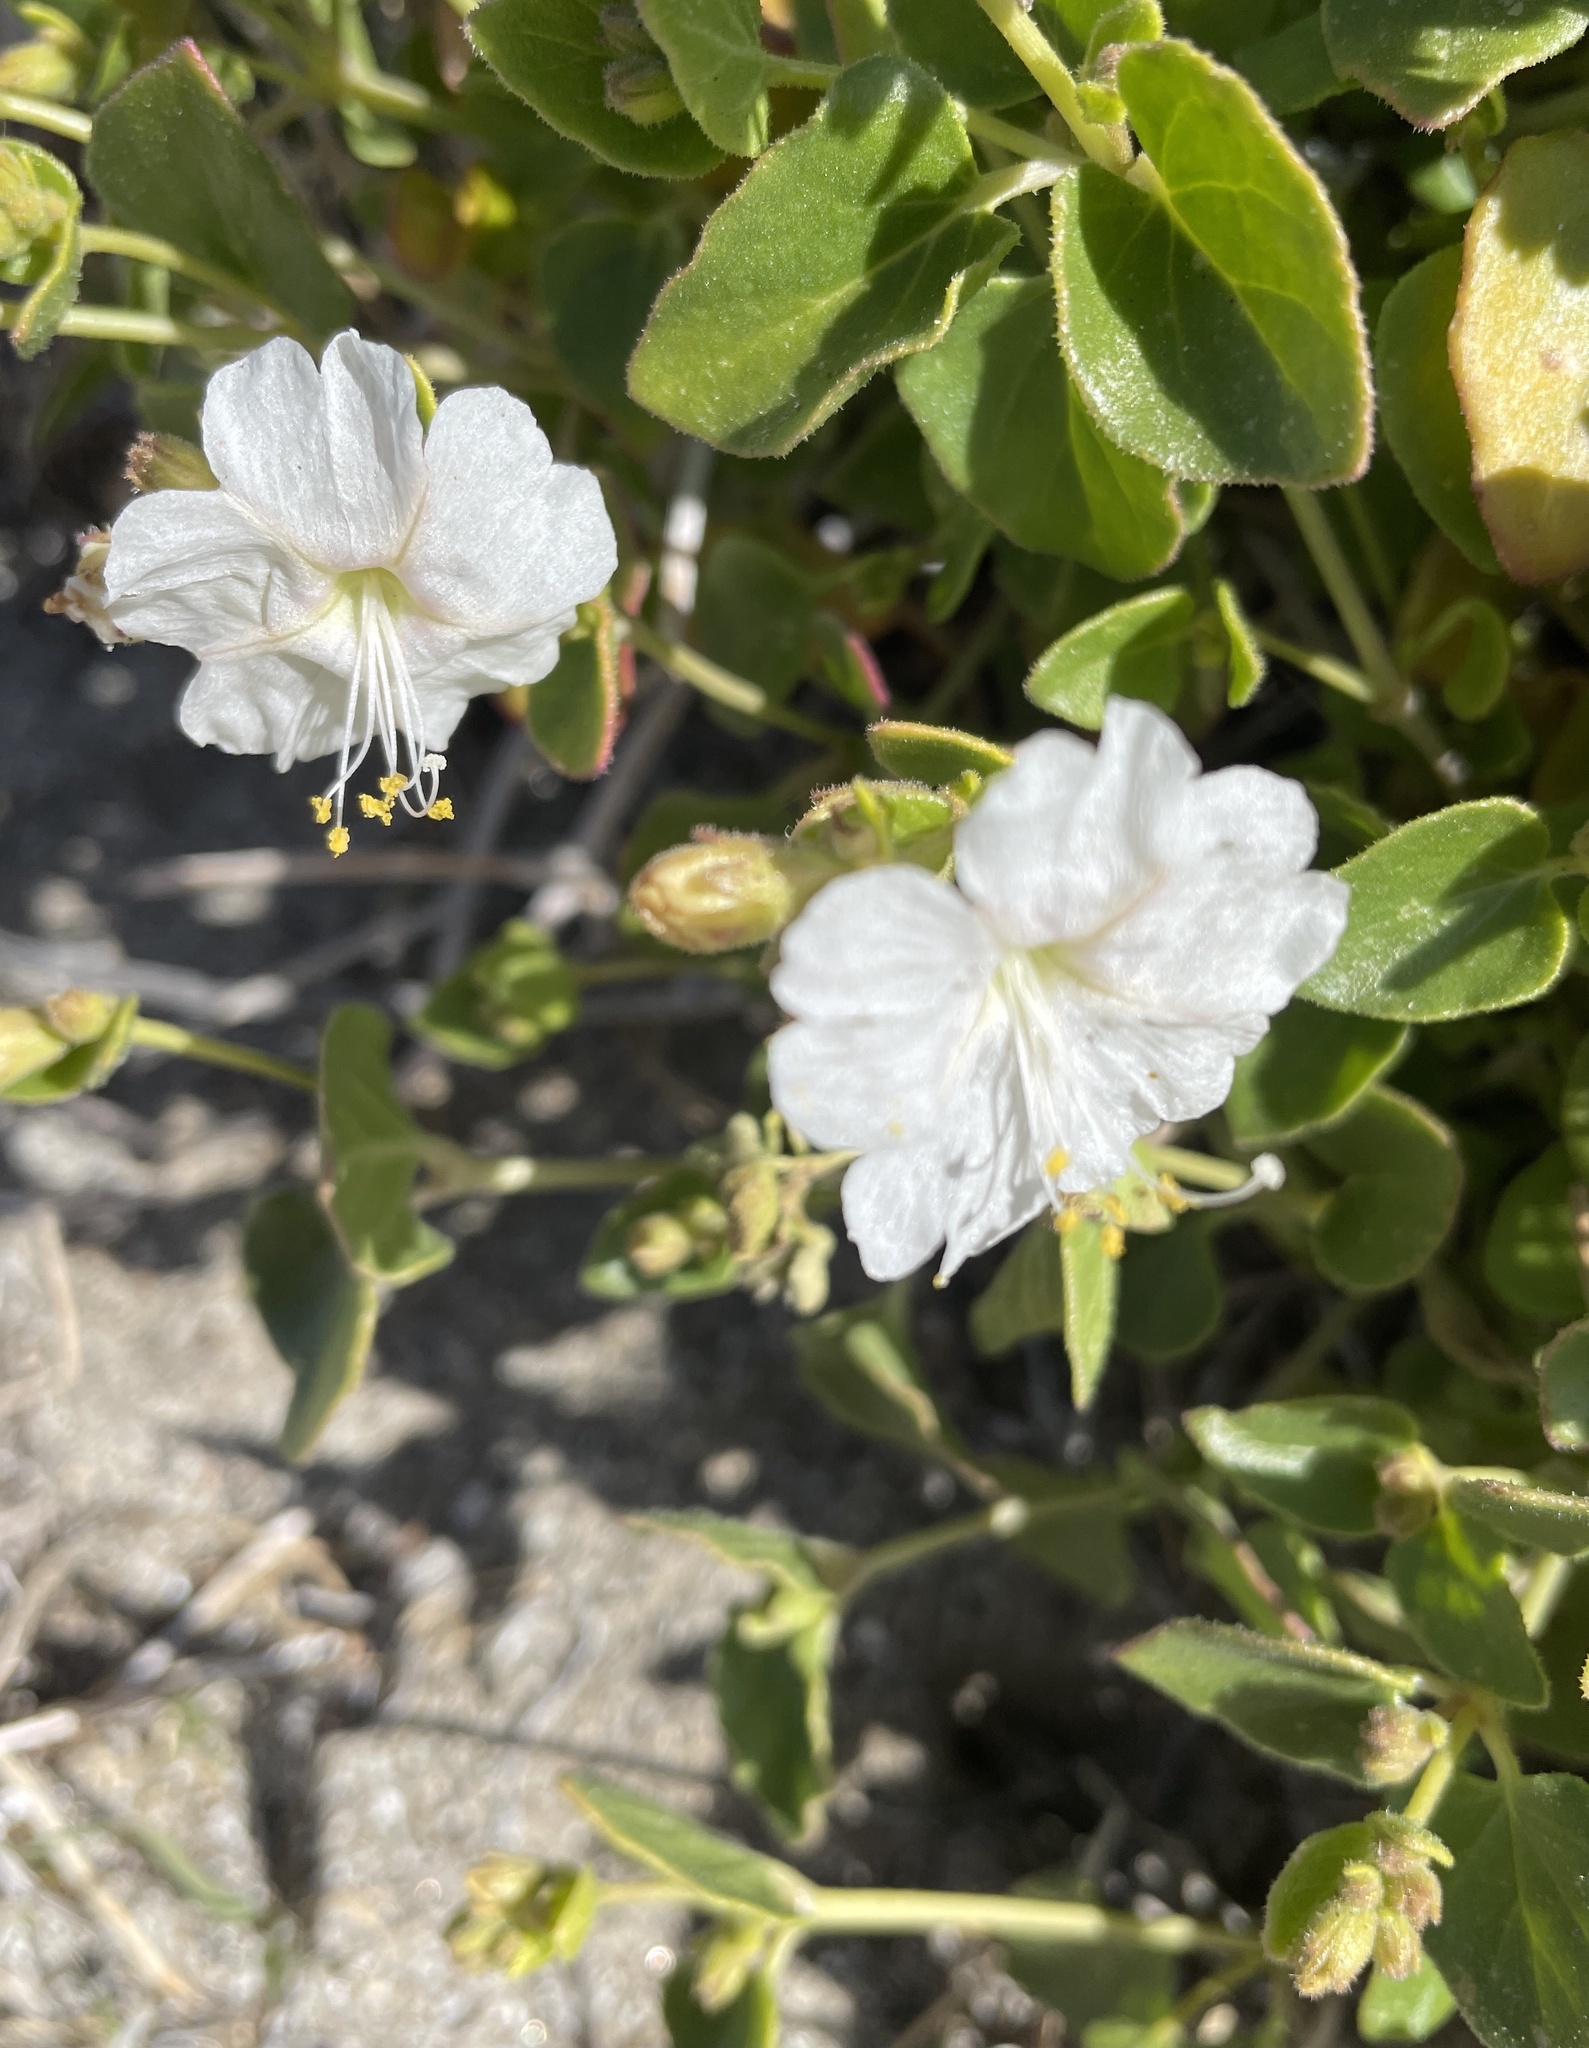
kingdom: Plantae
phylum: Tracheophyta
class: Magnoliopsida
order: Caryophyllales
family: Nyctaginaceae
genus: Mirabilis
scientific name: Mirabilis laevis
